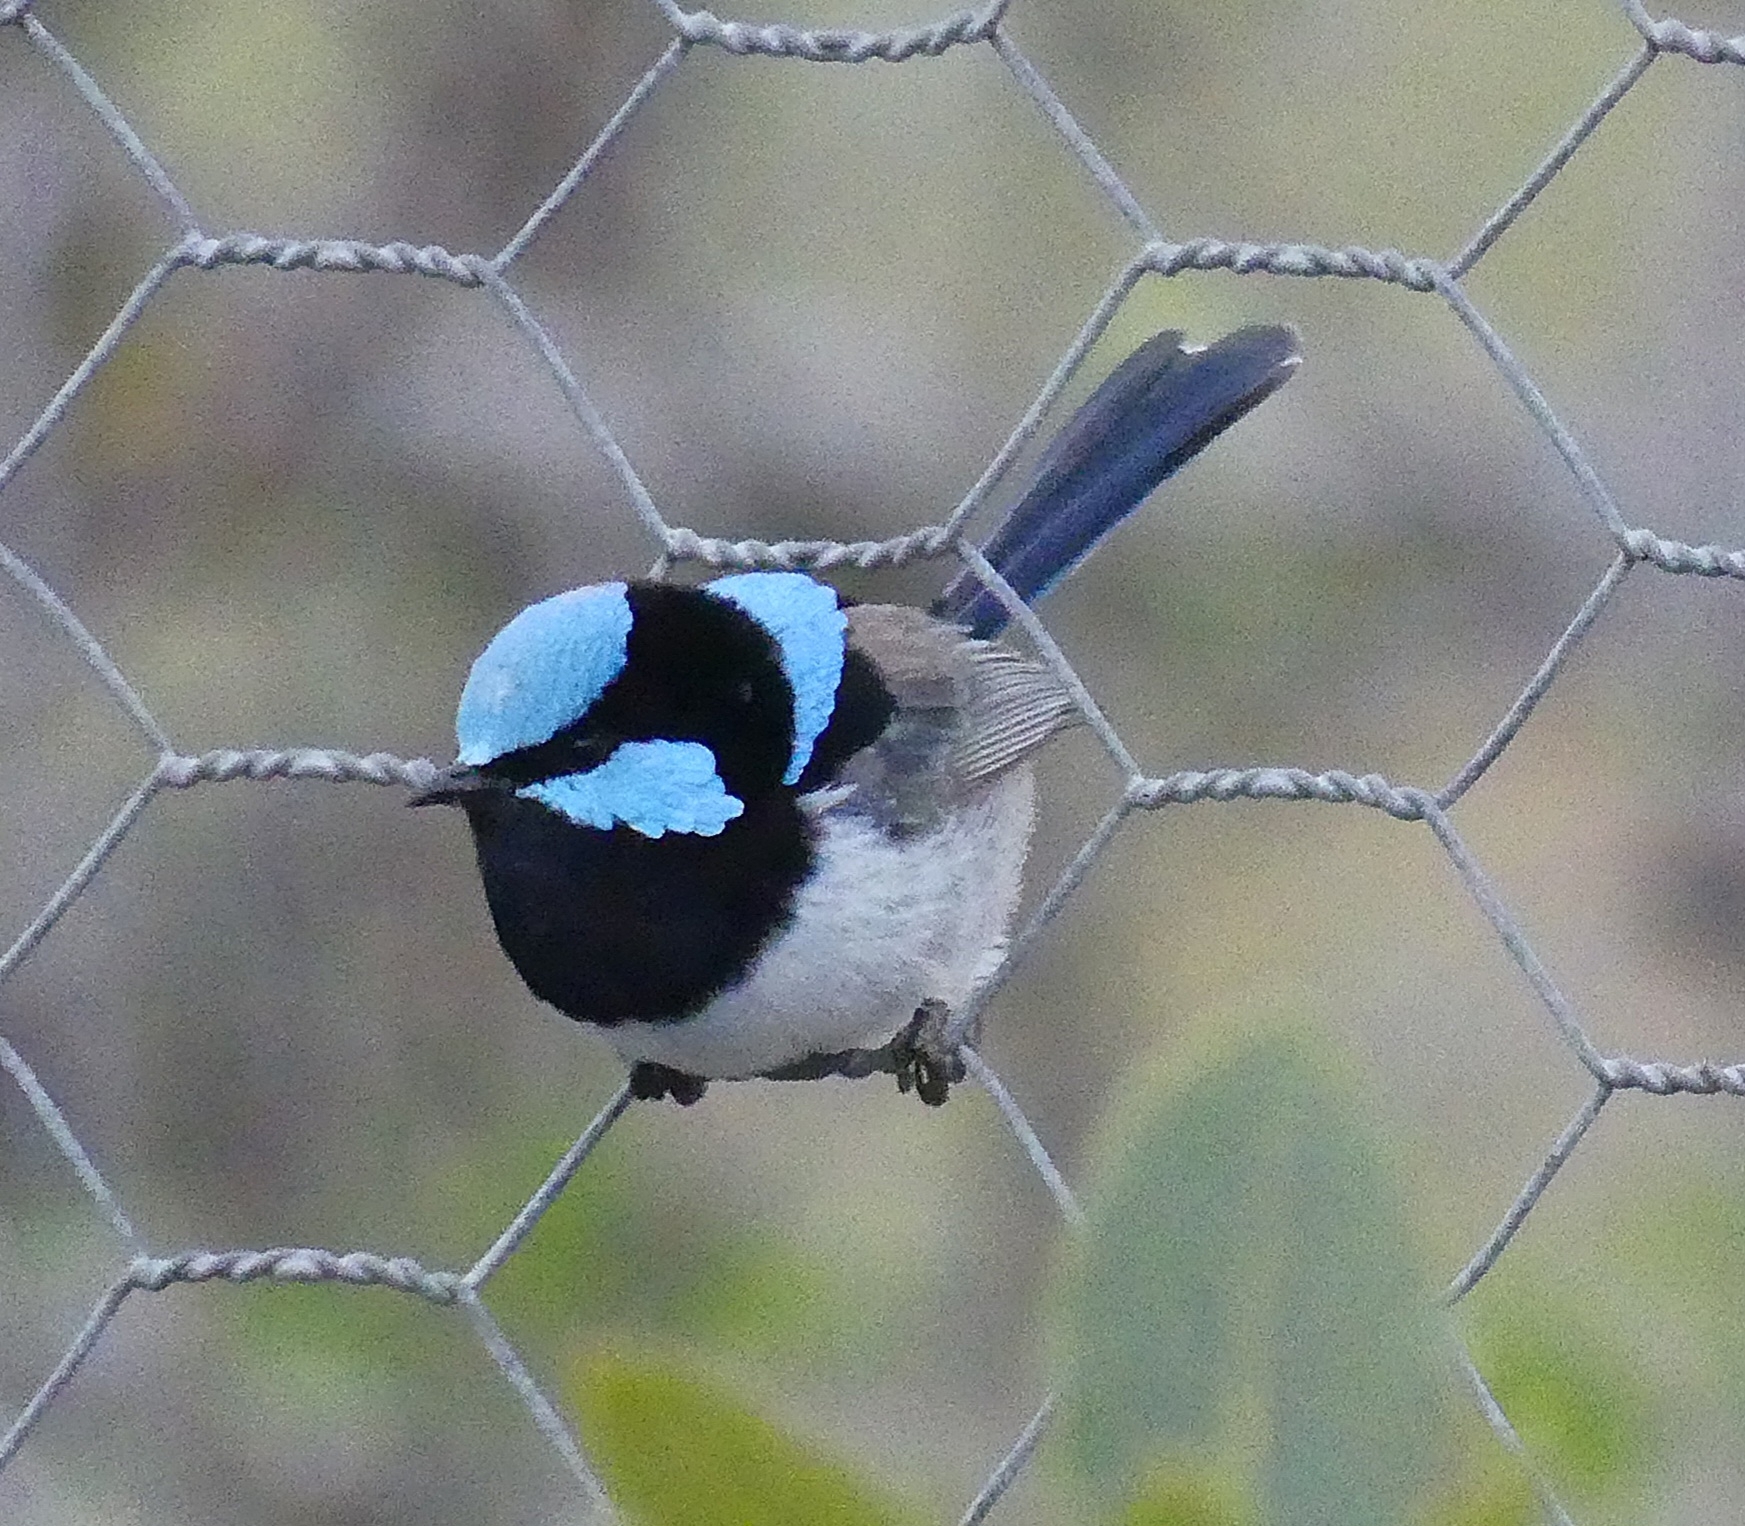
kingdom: Animalia
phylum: Chordata
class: Aves
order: Passeriformes
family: Maluridae
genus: Malurus
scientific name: Malurus cyaneus
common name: Superb fairywren
